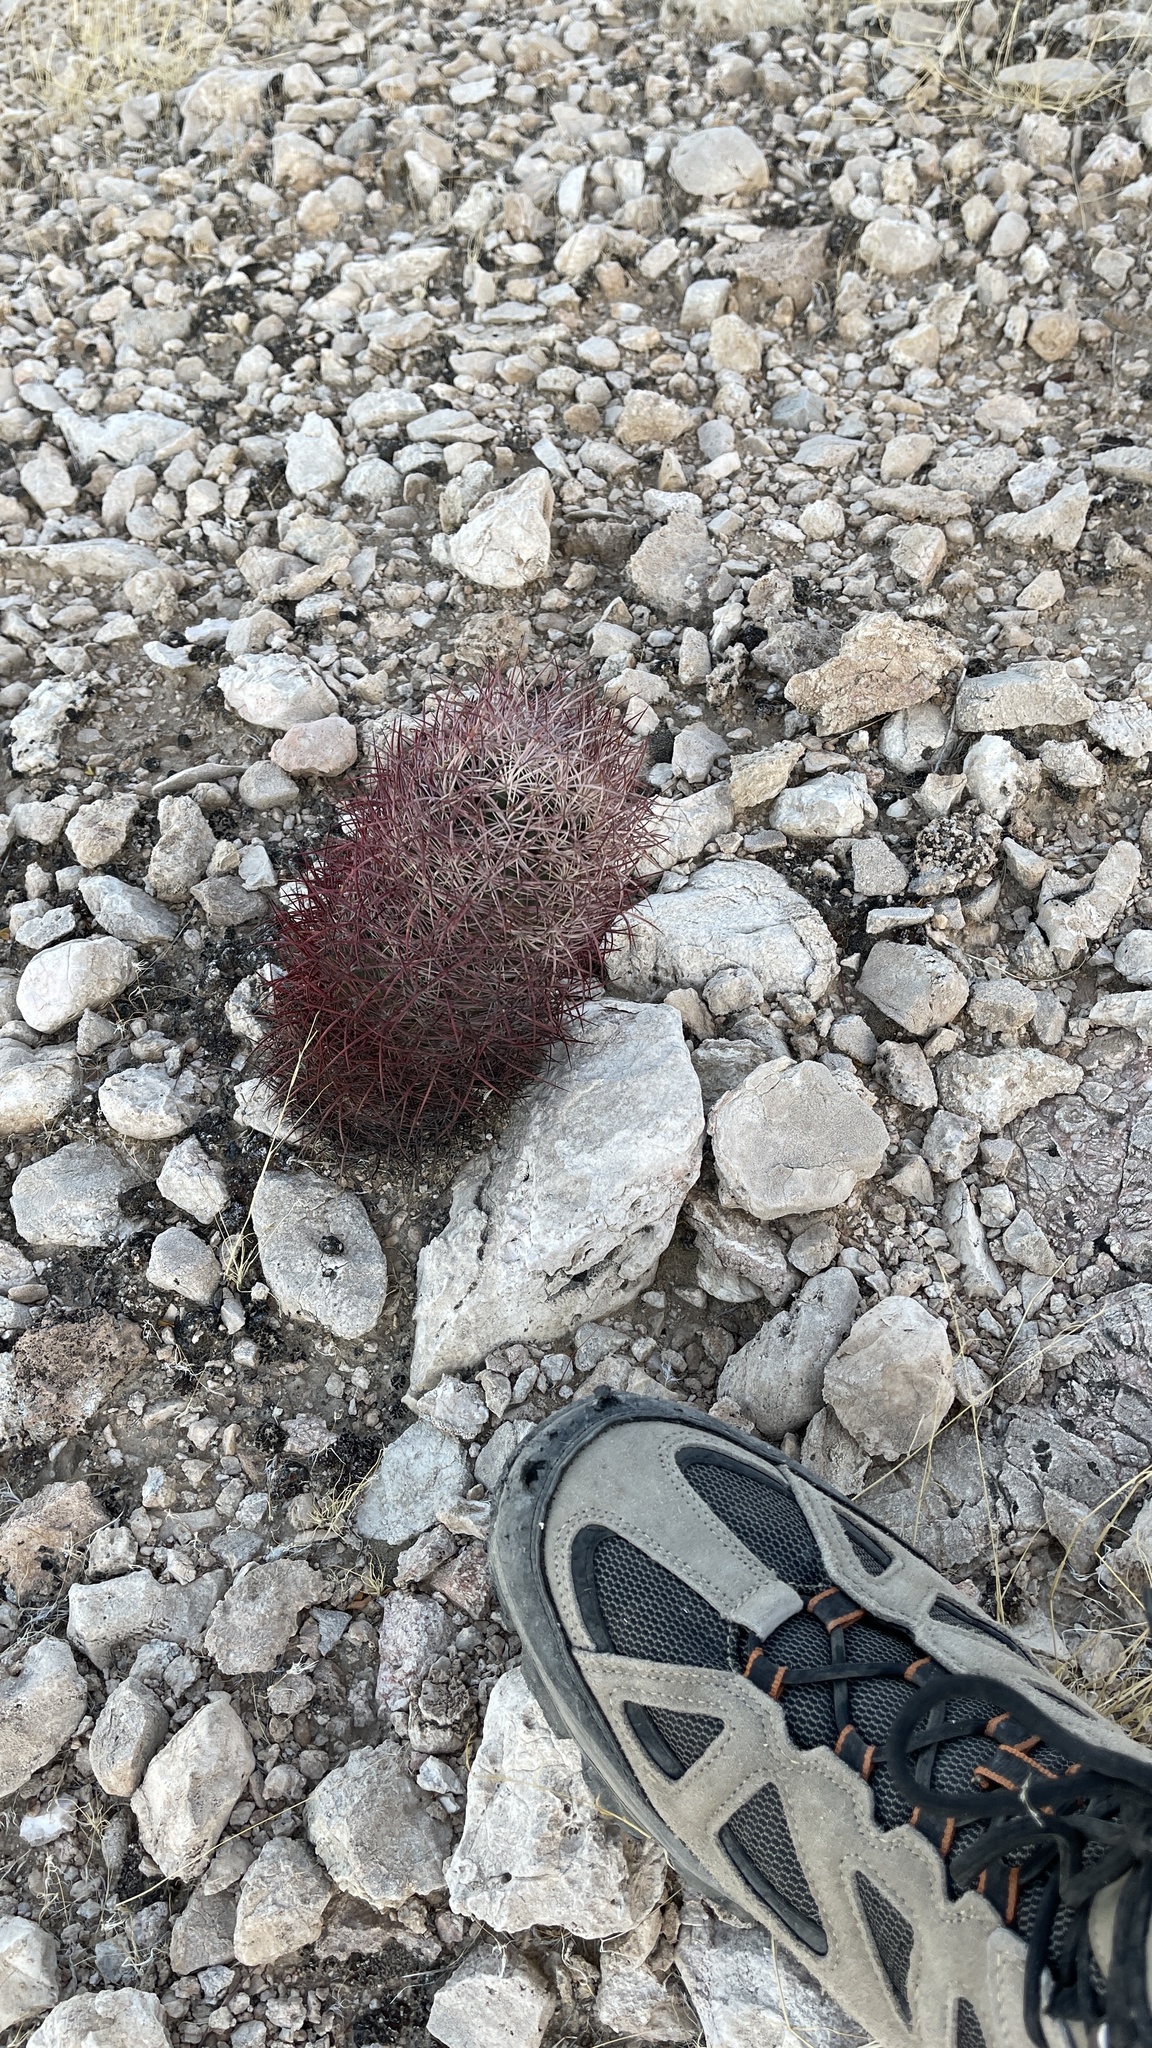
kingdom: Plantae
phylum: Tracheophyta
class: Magnoliopsida
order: Caryophyllales
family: Cactaceae
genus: Sclerocactus
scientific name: Sclerocactus johnsonii
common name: Eight-spine fishhook cactus
